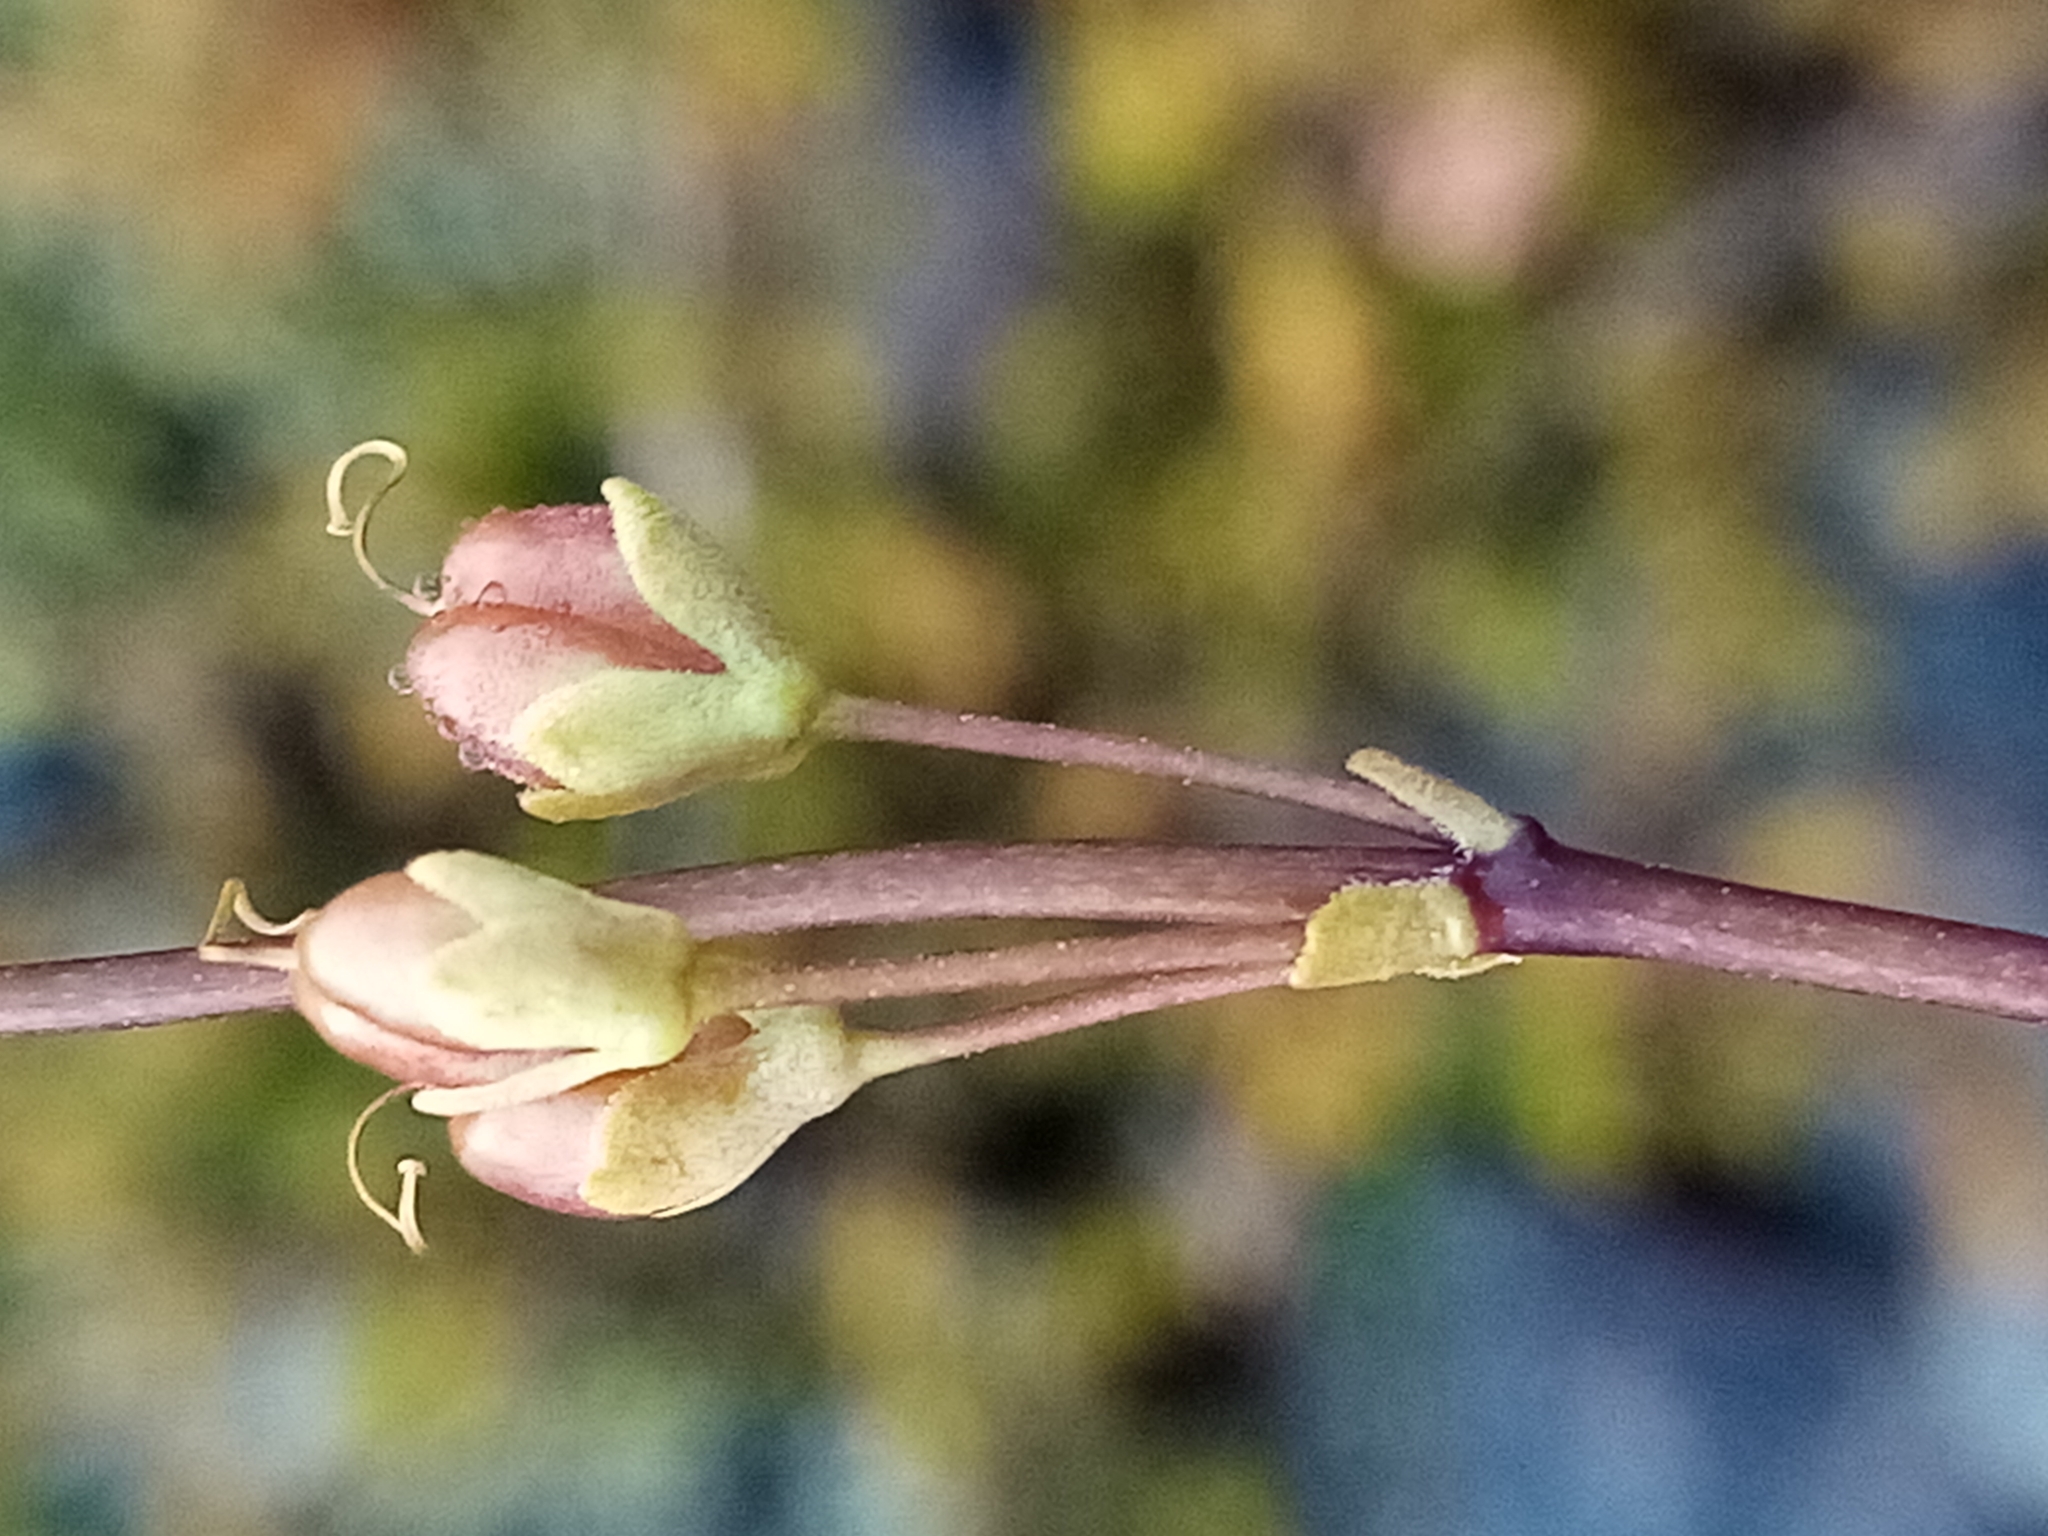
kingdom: Plantae
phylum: Tracheophyta
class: Magnoliopsida
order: Lamiales
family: Plantaginaceae
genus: Veronica
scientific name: Veronica decora
